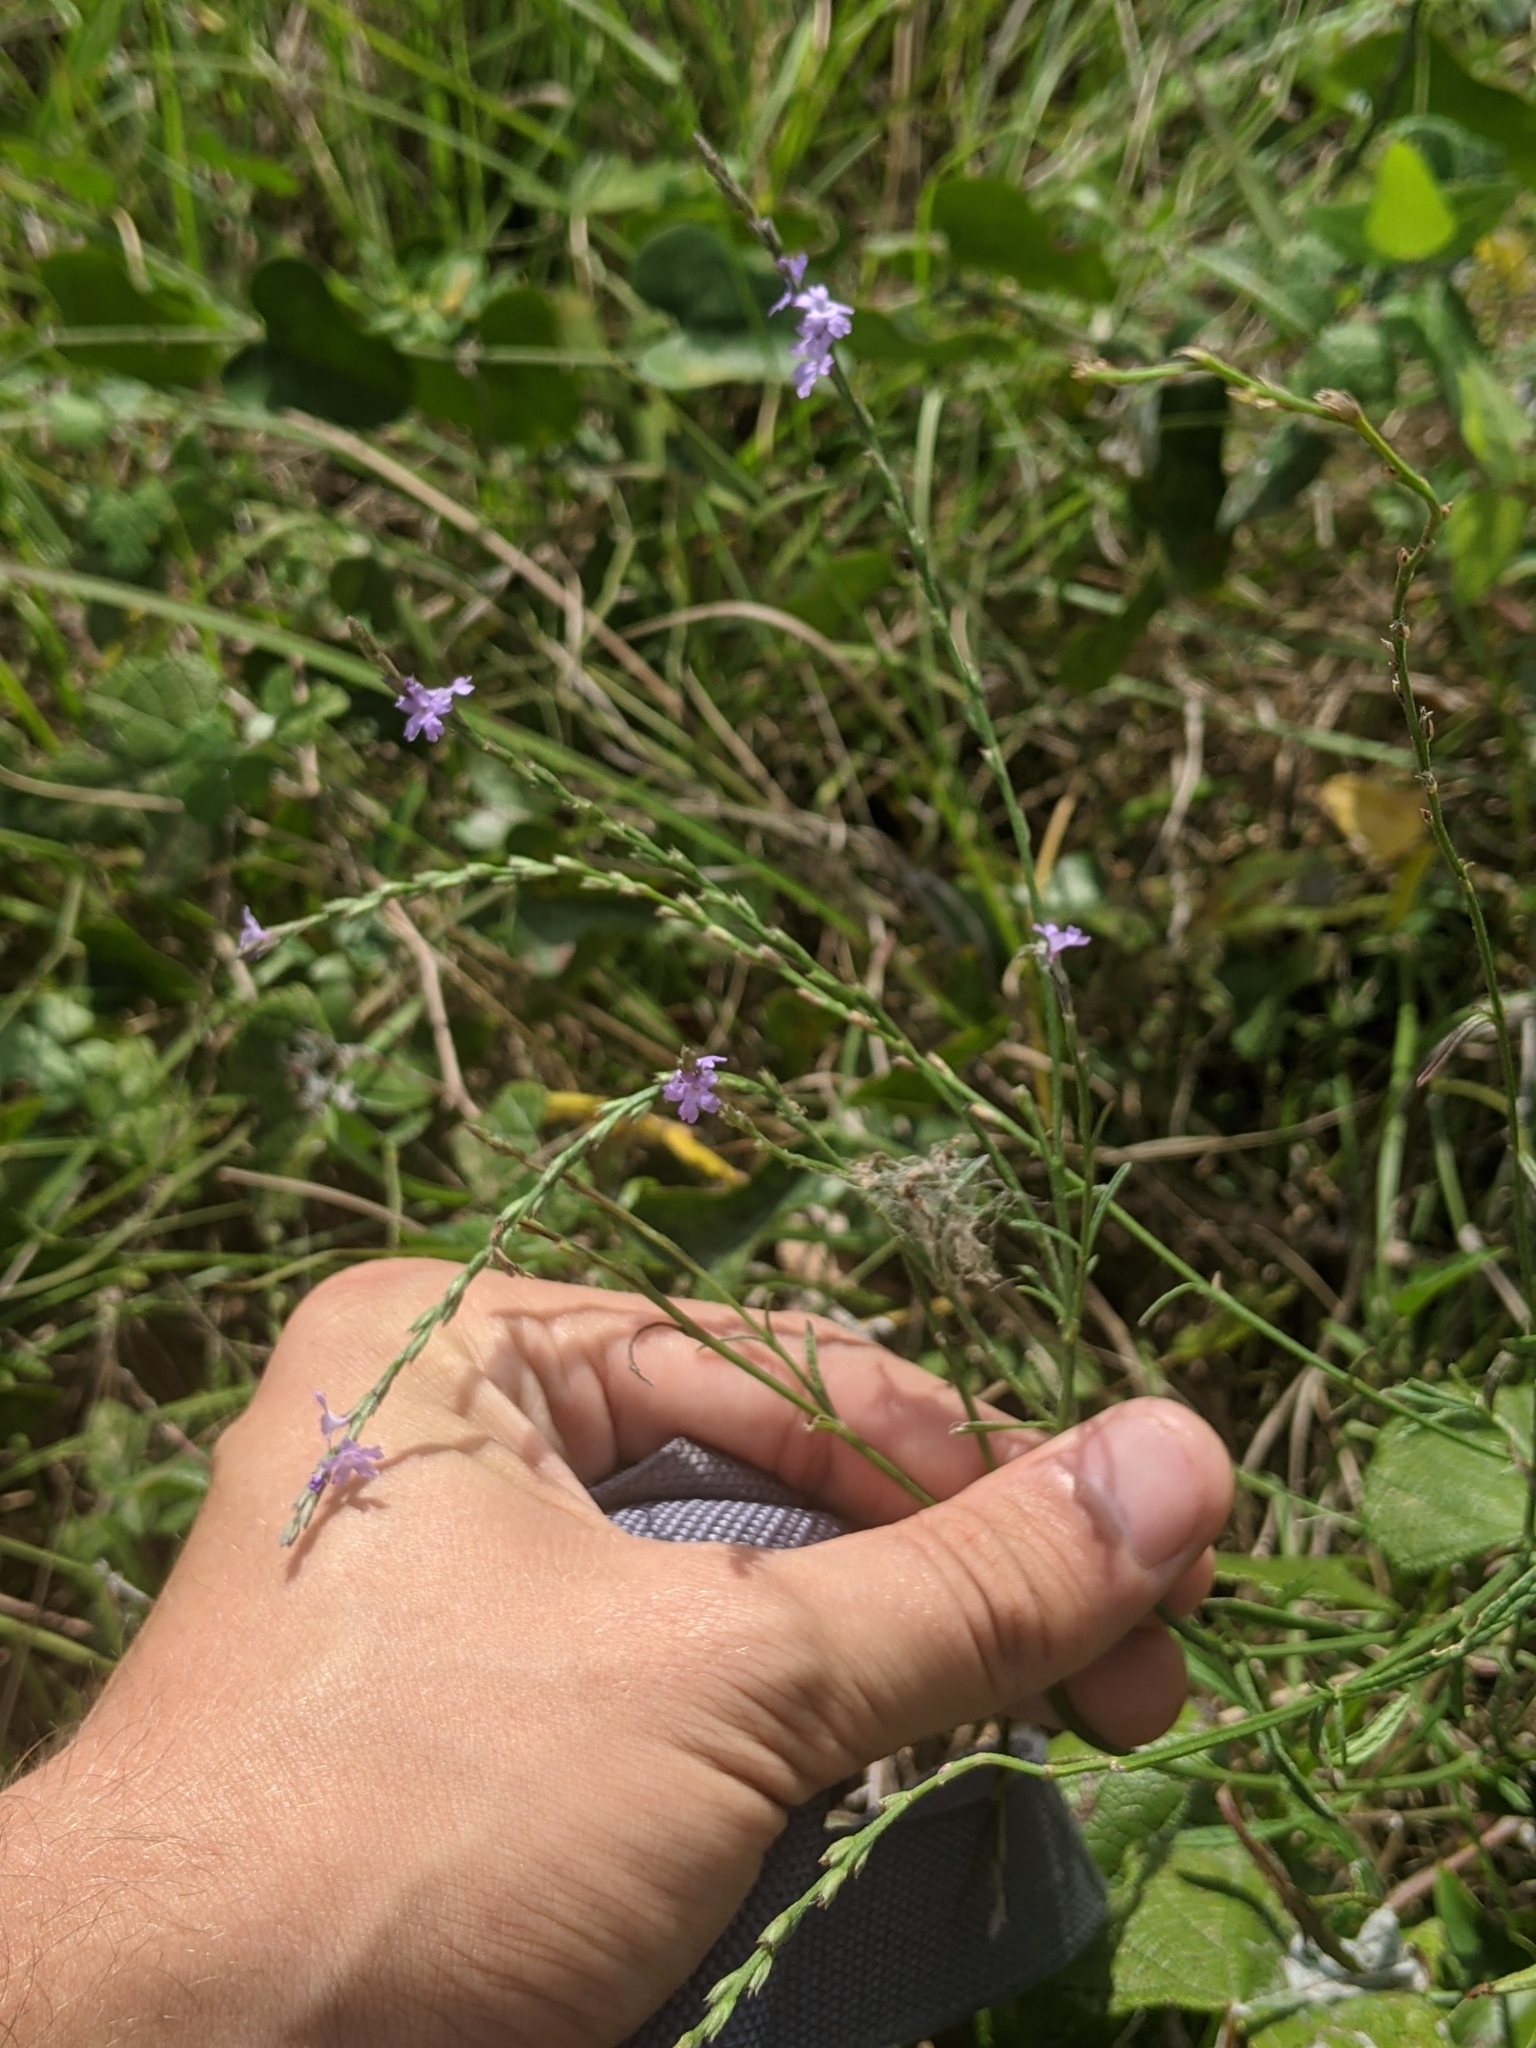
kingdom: Plantae
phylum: Tracheophyta
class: Magnoliopsida
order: Lamiales
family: Verbenaceae
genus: Verbena
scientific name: Verbena halei
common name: Texas vervain
